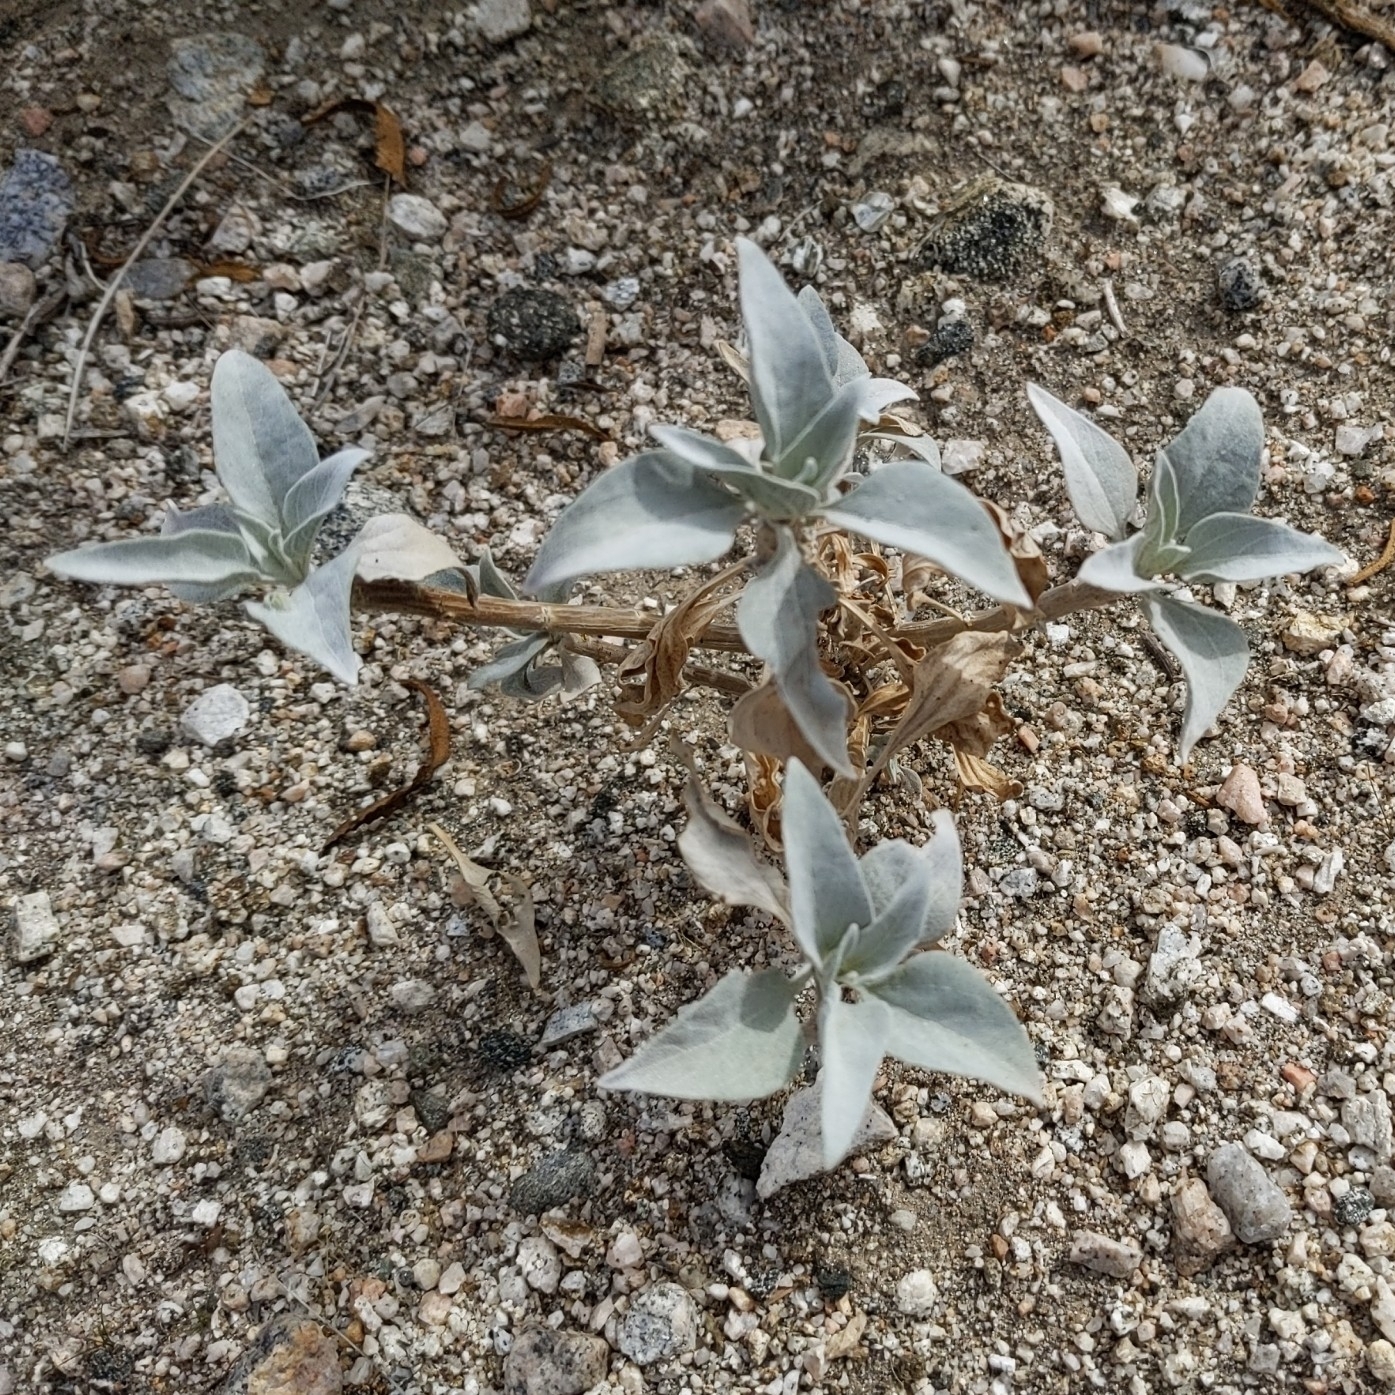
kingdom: Plantae
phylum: Tracheophyta
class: Magnoliopsida
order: Asterales
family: Asteraceae
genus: Encelia
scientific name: Encelia farinosa
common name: Brittlebush
